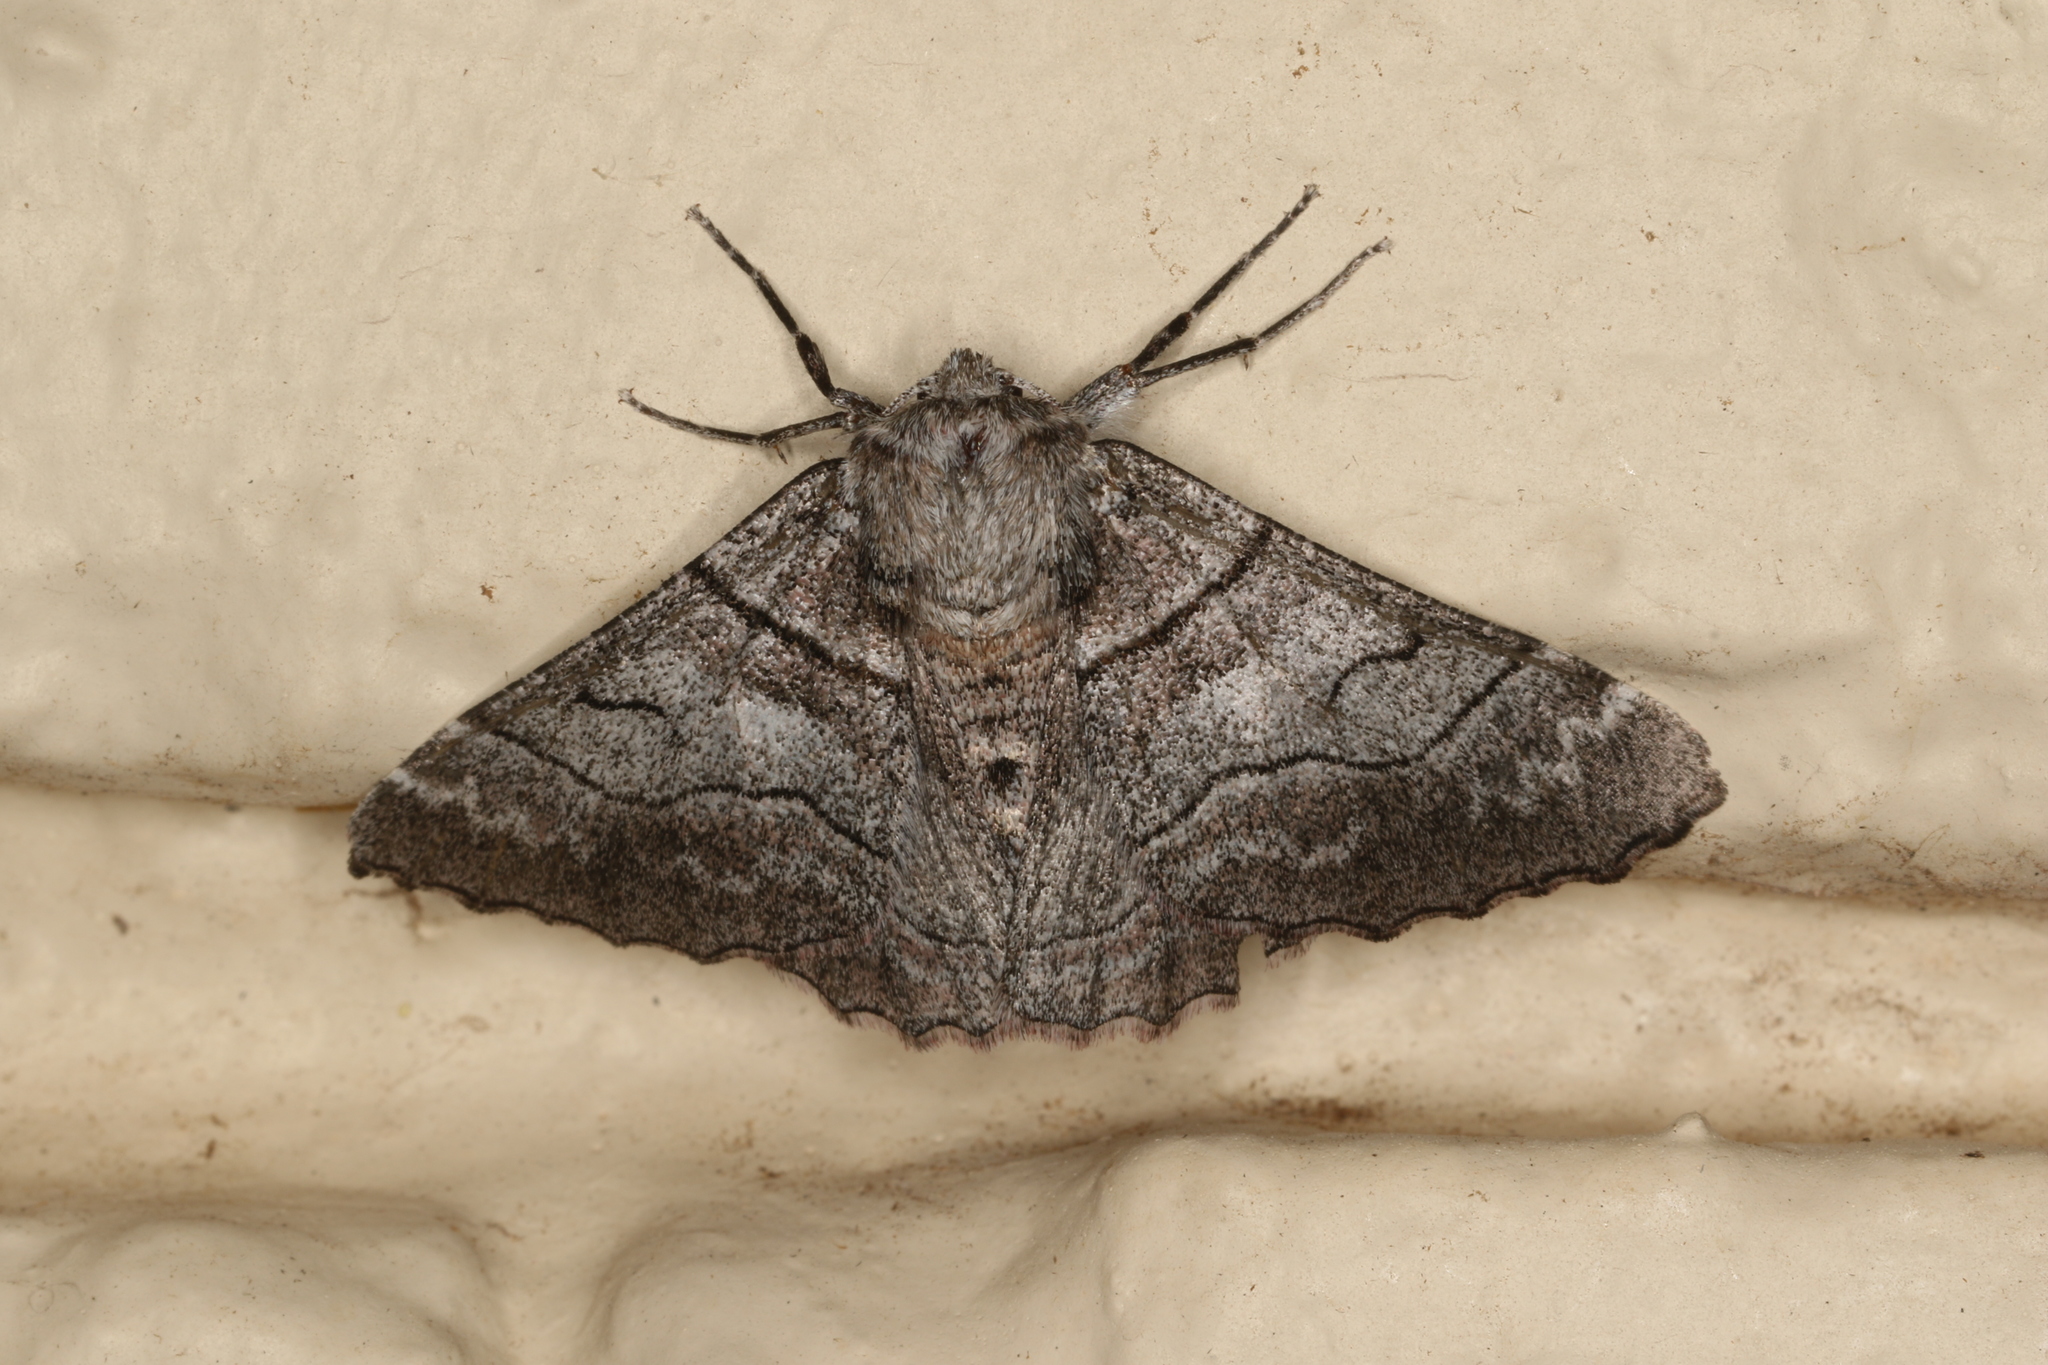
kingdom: Animalia
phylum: Arthropoda
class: Insecta
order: Lepidoptera
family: Geometridae
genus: Hypobapta
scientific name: Hypobapta diffundens
